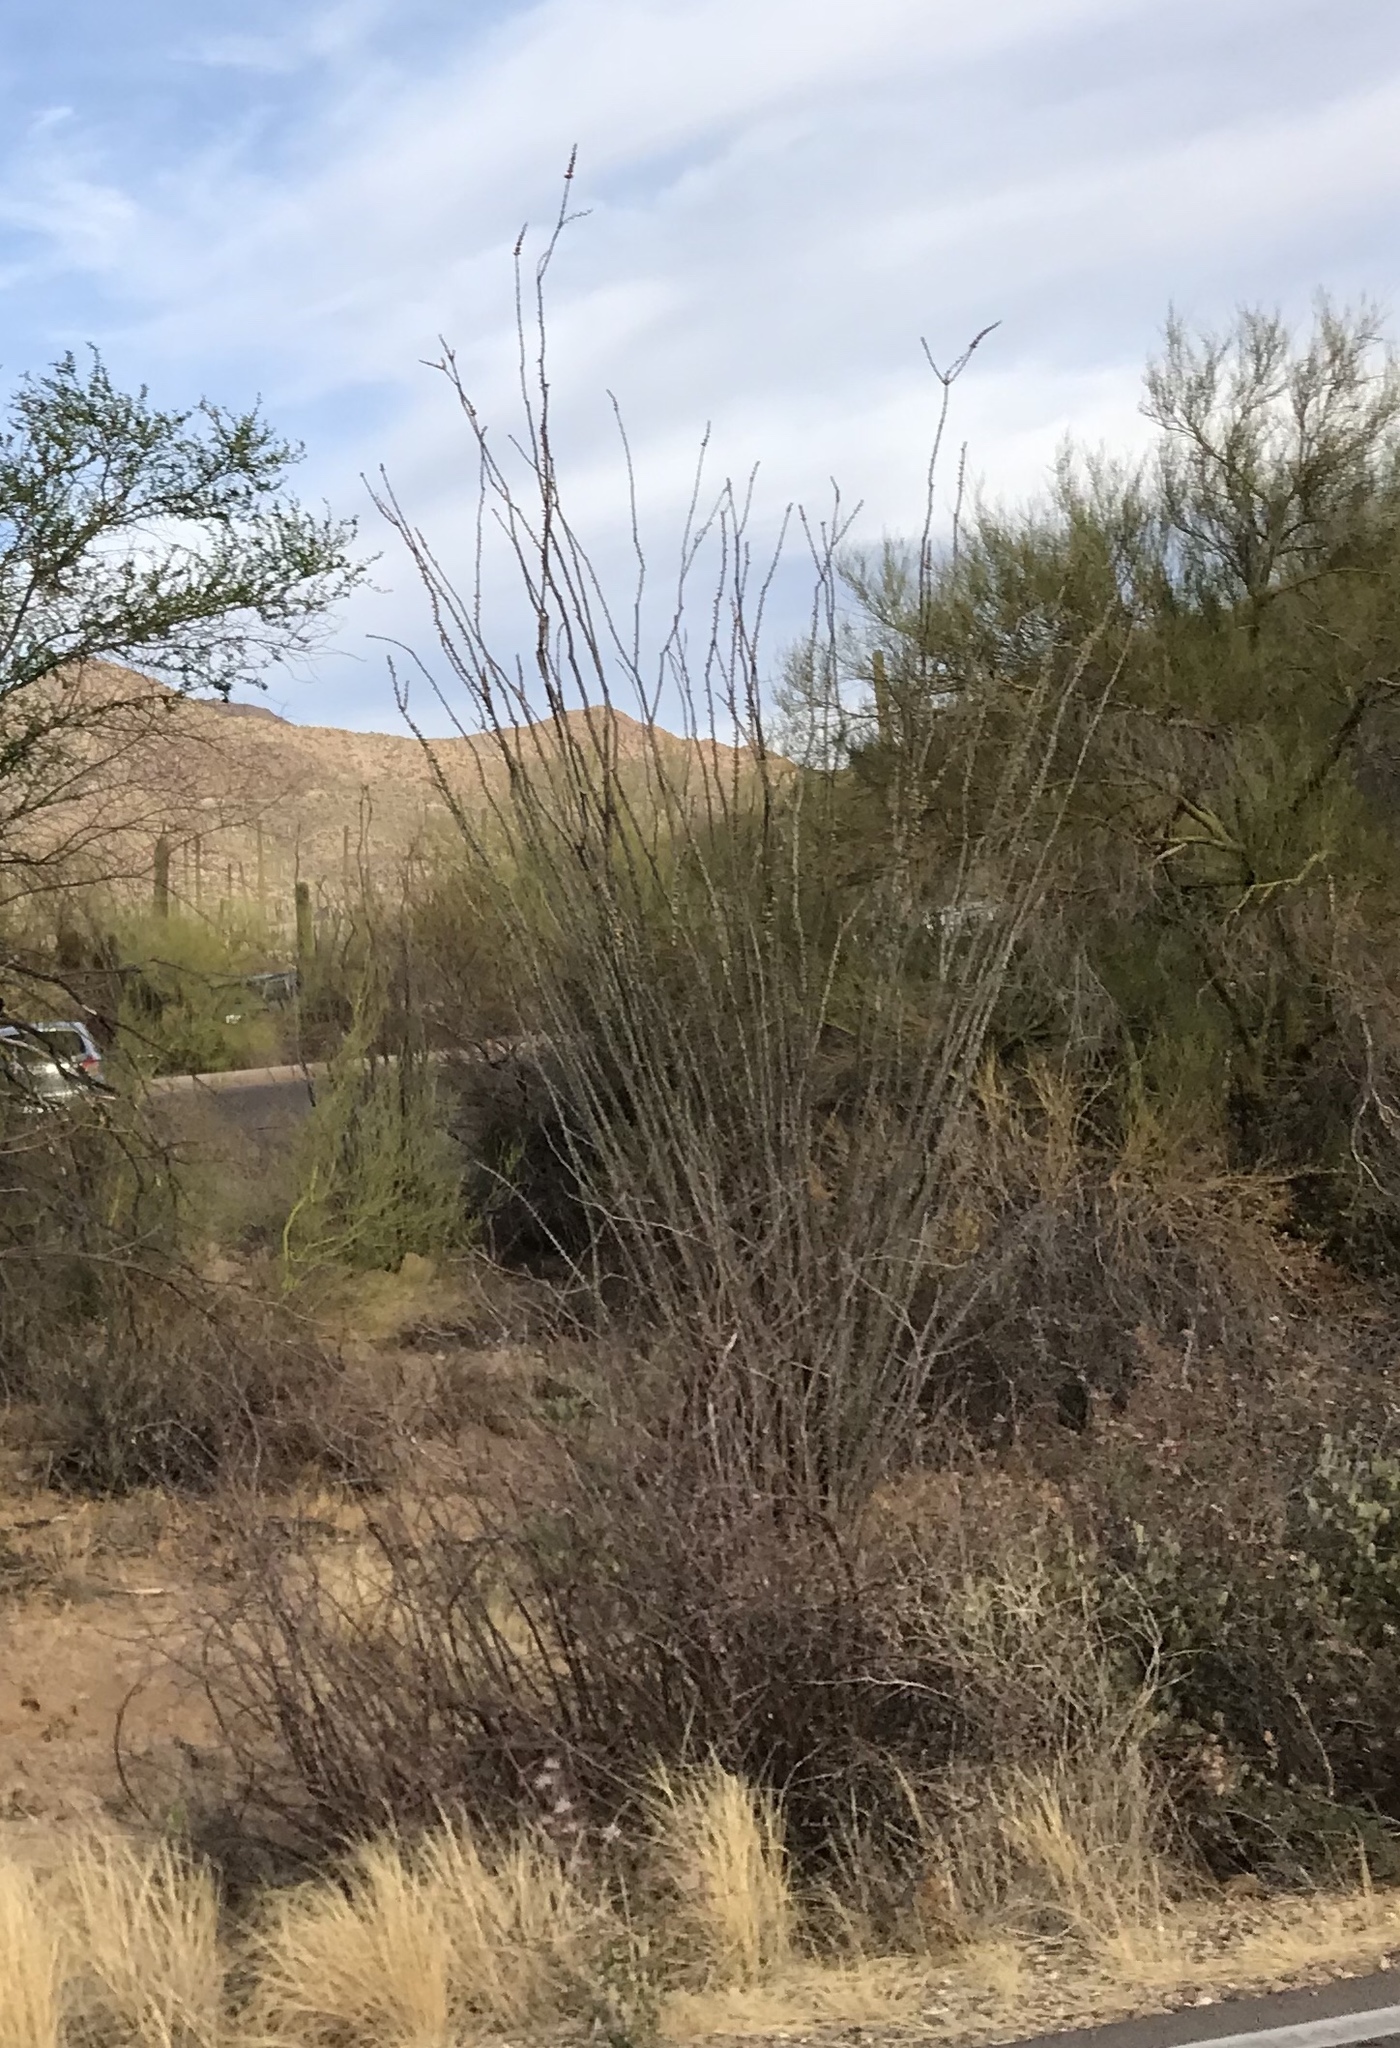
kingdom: Plantae
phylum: Tracheophyta
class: Magnoliopsida
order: Ericales
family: Fouquieriaceae
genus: Fouquieria
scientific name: Fouquieria splendens
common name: Vine-cactus
